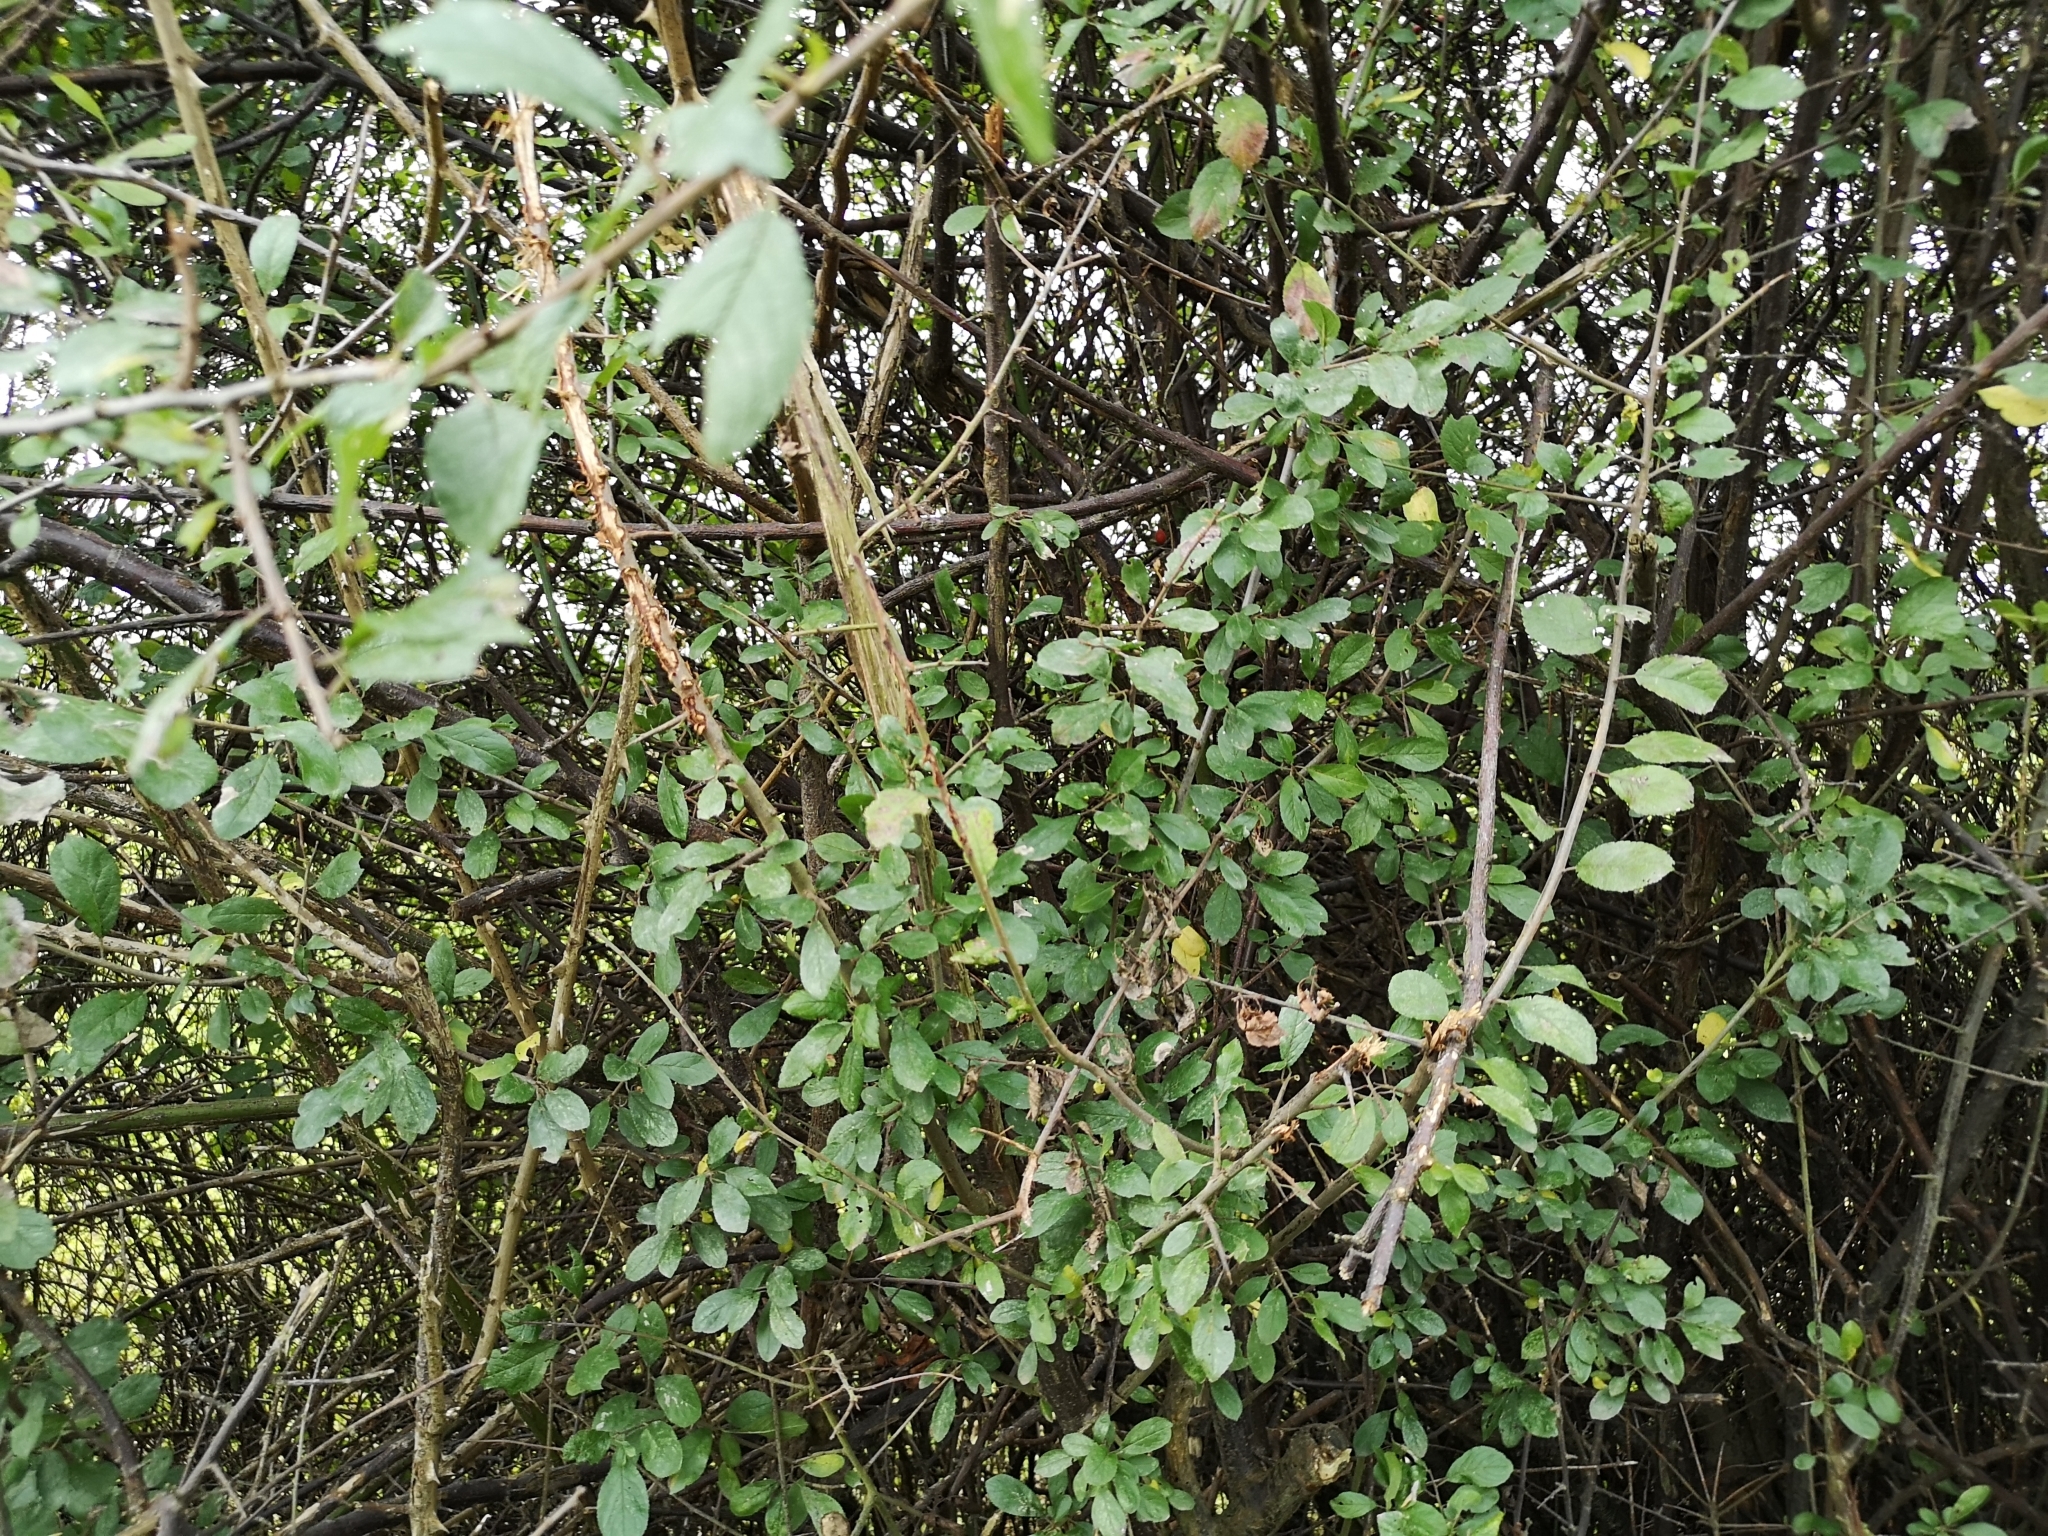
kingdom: Plantae
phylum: Tracheophyta
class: Magnoliopsida
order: Rosales
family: Rosaceae
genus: Prunus
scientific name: Prunus spinosa
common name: Blackthorn
